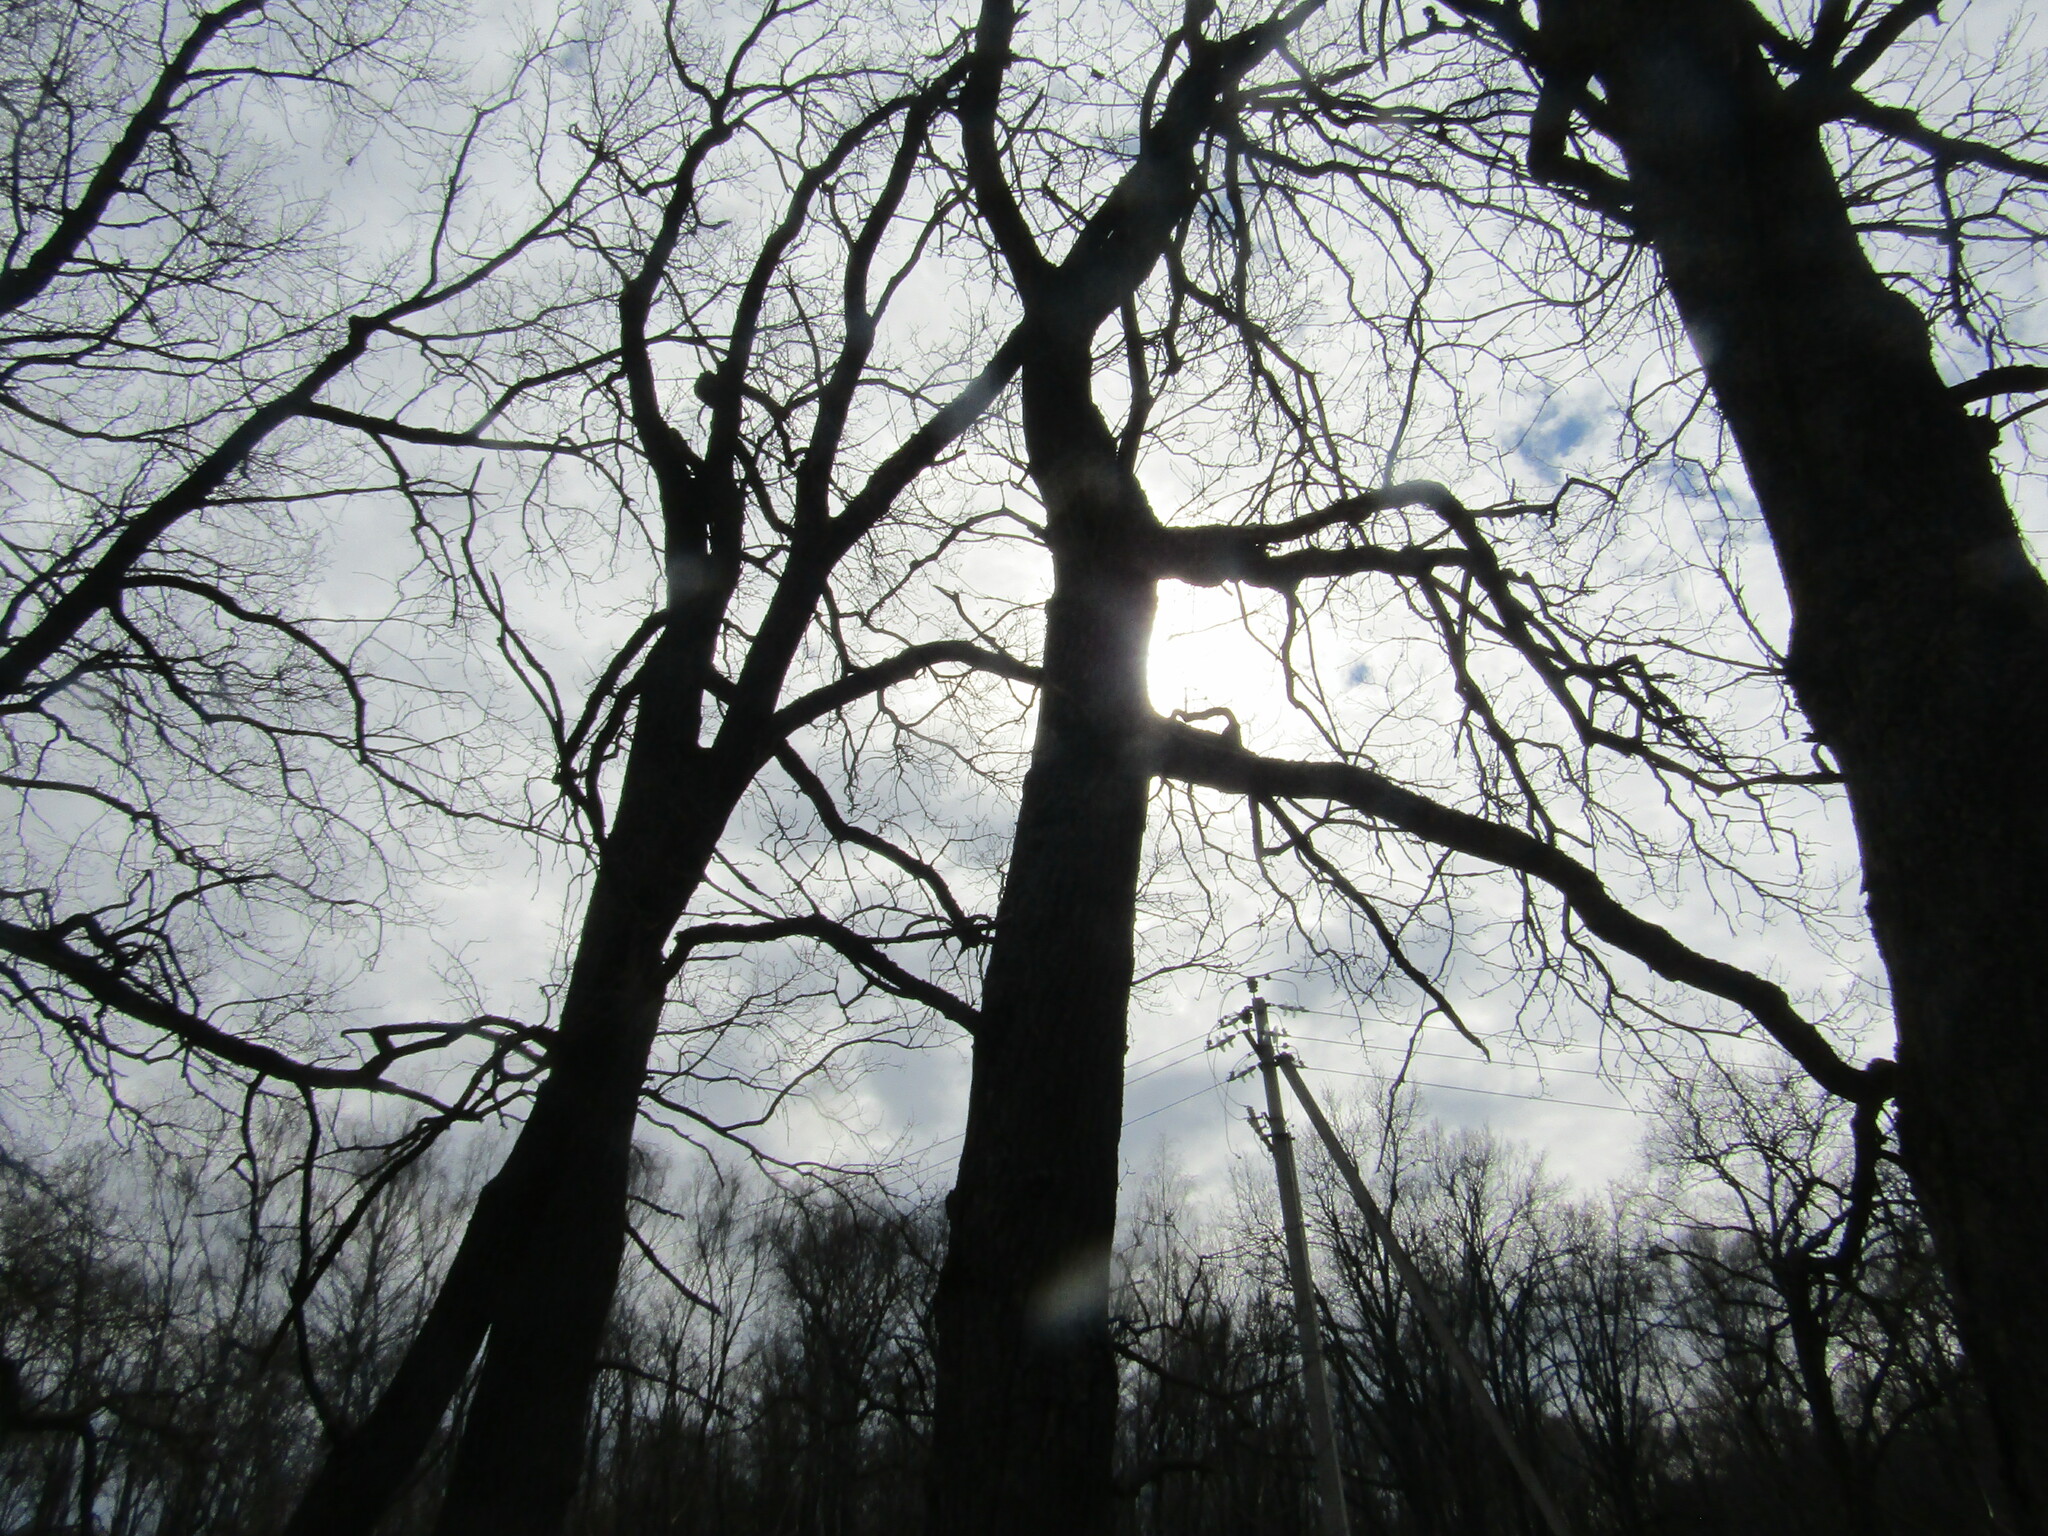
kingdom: Plantae
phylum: Tracheophyta
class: Magnoliopsida
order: Fagales
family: Fagaceae
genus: Quercus
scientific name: Quercus robur
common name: Pedunculate oak
